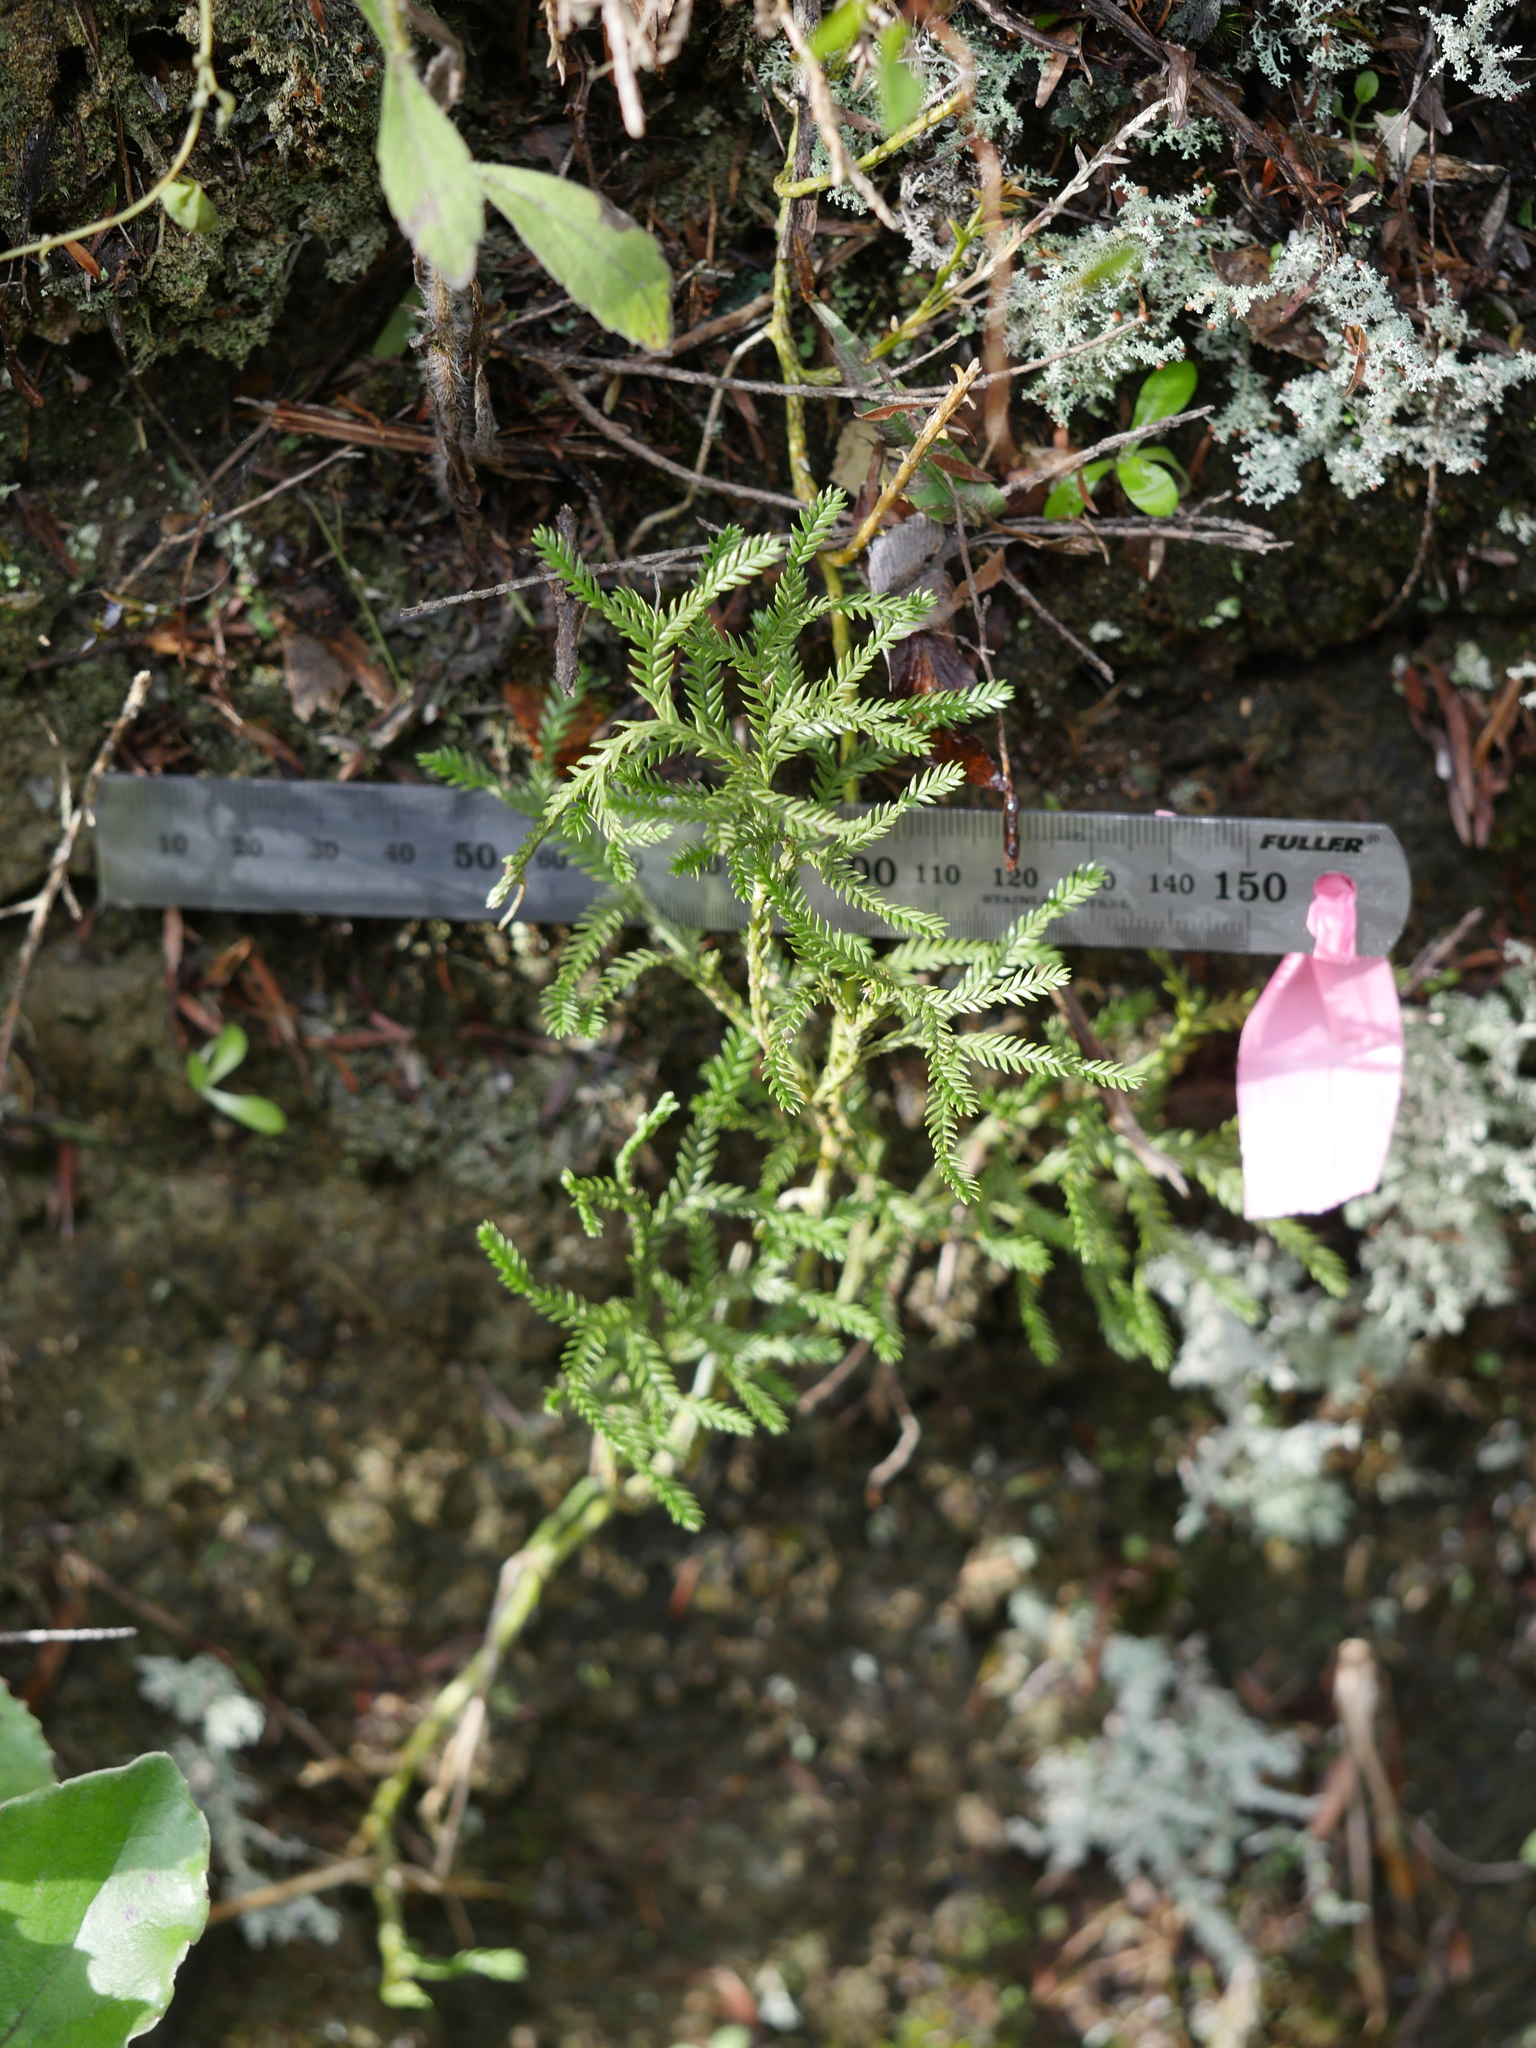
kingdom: Plantae
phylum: Tracheophyta
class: Lycopodiopsida
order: Lycopodiales
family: Lycopodiaceae
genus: Lycopodium
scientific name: Lycopodium volubile
